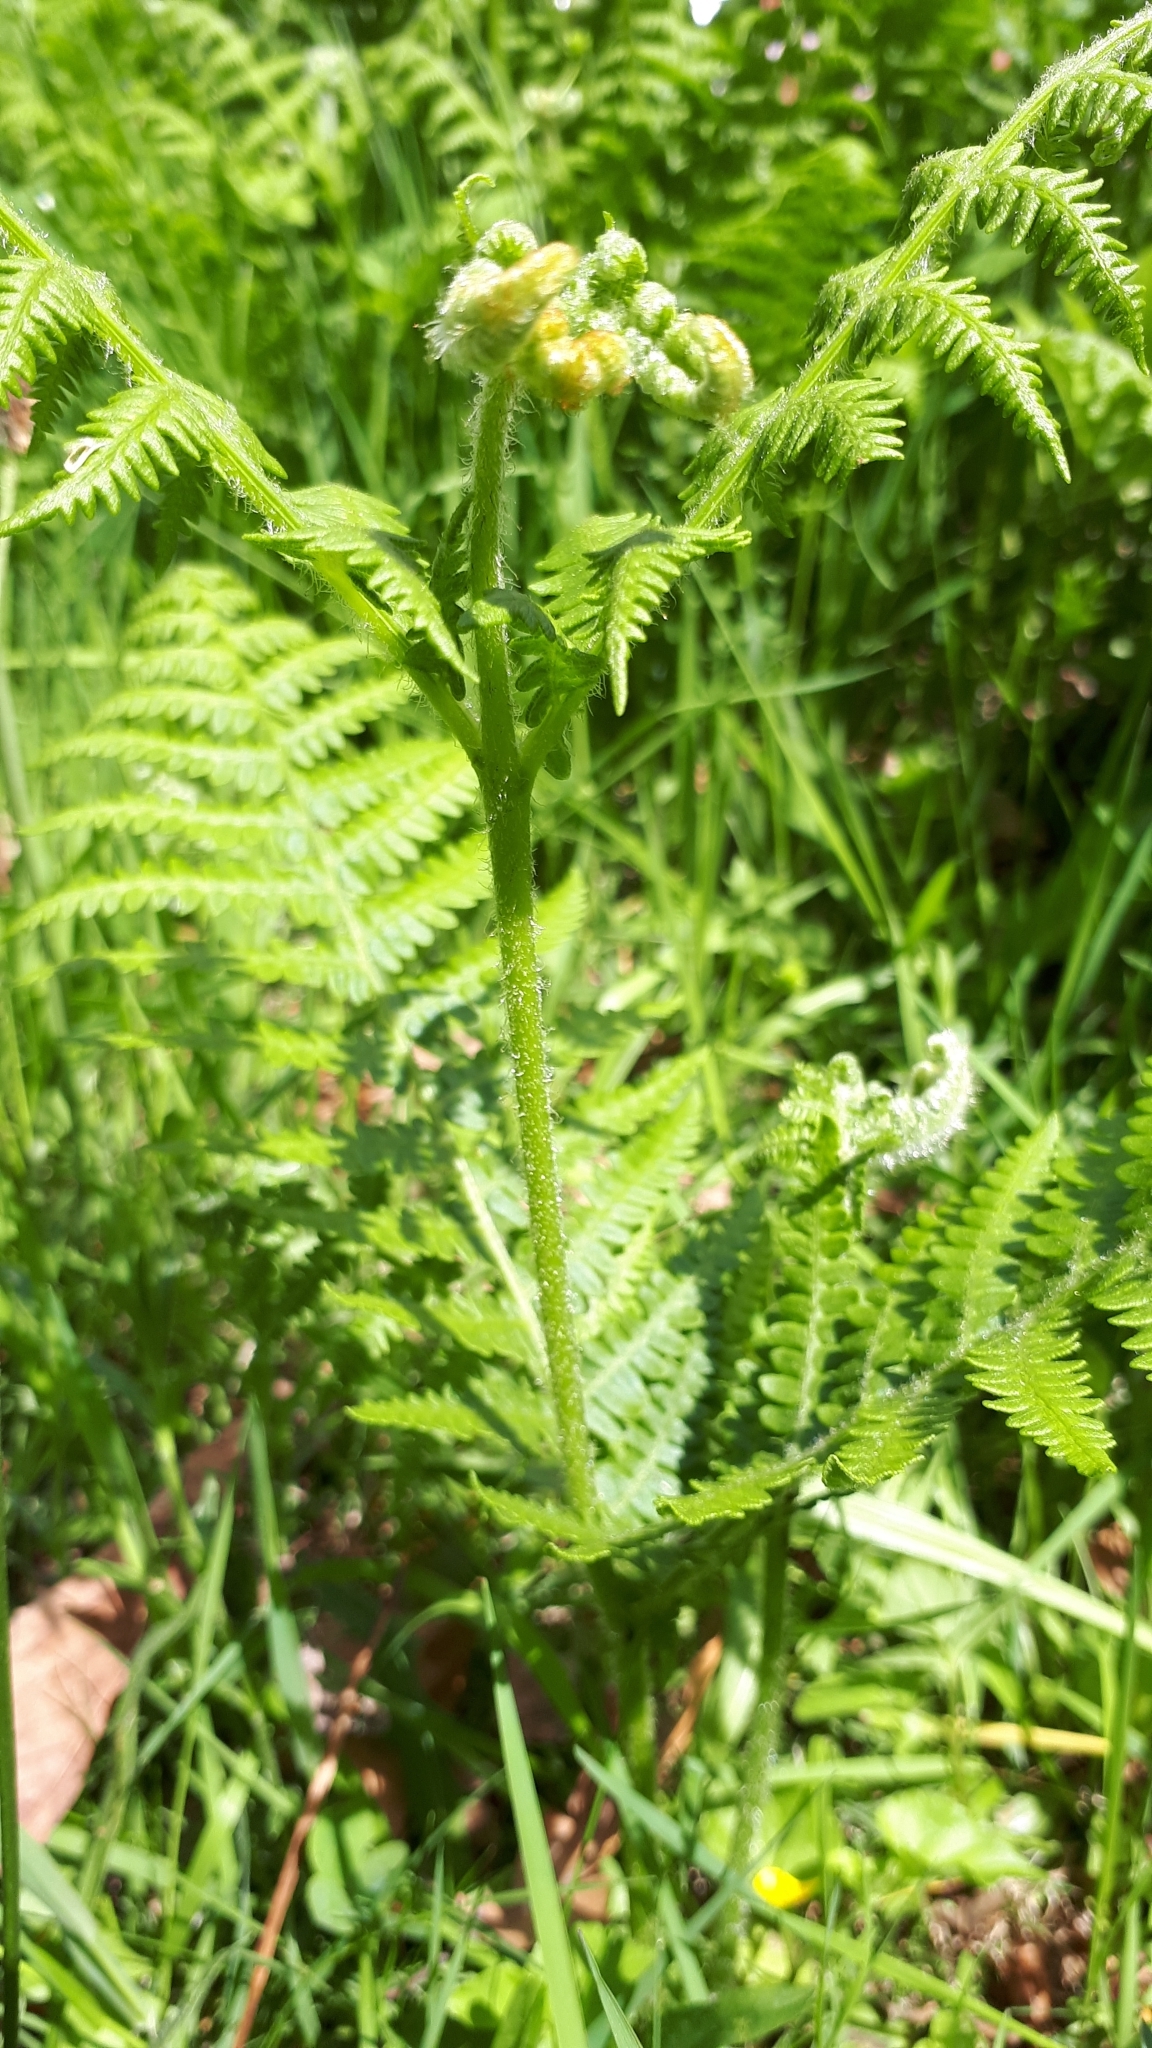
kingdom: Plantae
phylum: Tracheophyta
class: Polypodiopsida
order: Polypodiales
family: Dennstaedtiaceae
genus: Pteridium
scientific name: Pteridium aquilinum
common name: Bracken
